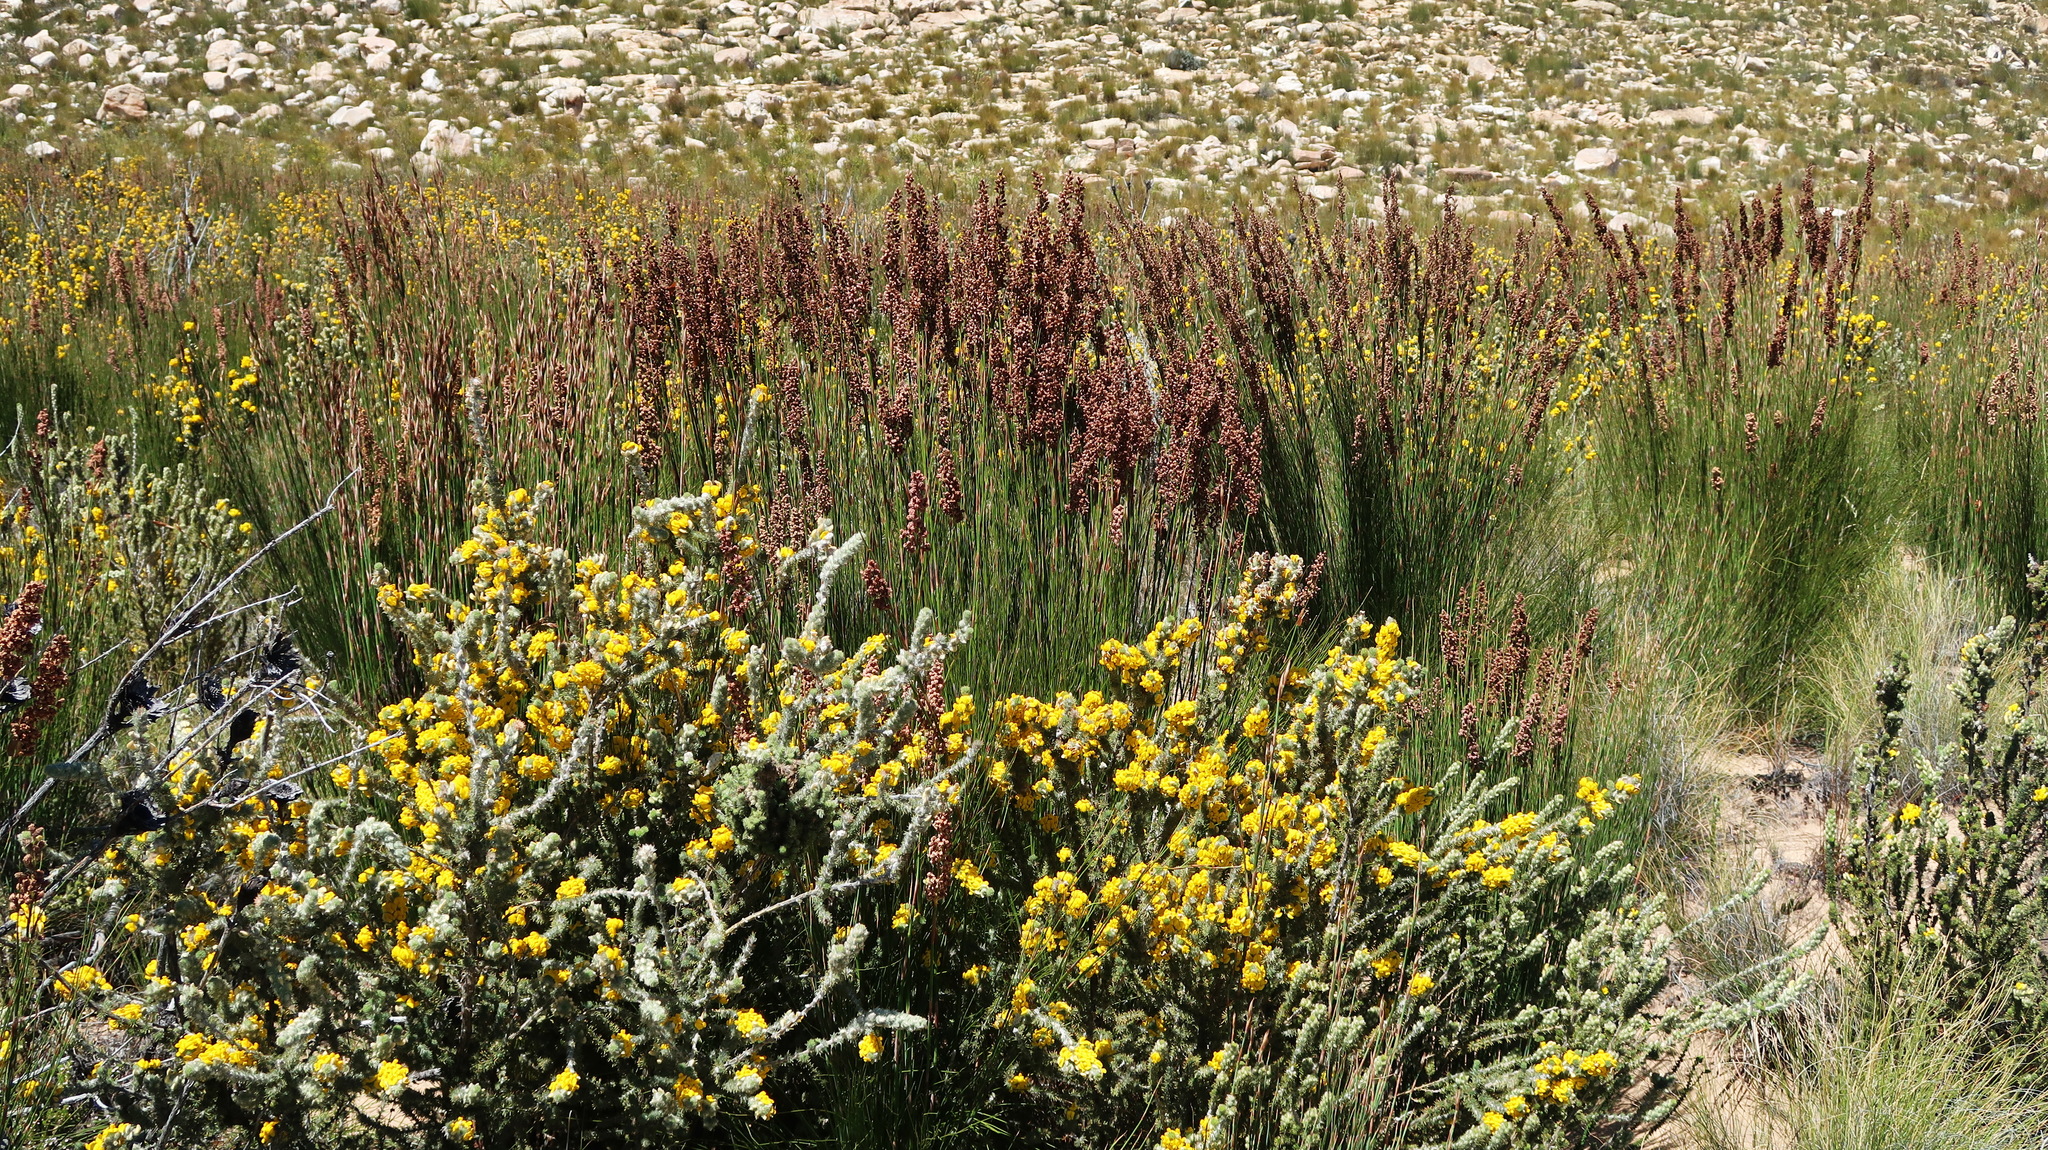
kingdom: Plantae
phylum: Tracheophyta
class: Liliopsida
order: Poales
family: Restionaceae
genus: Cannomois
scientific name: Cannomois robusta
